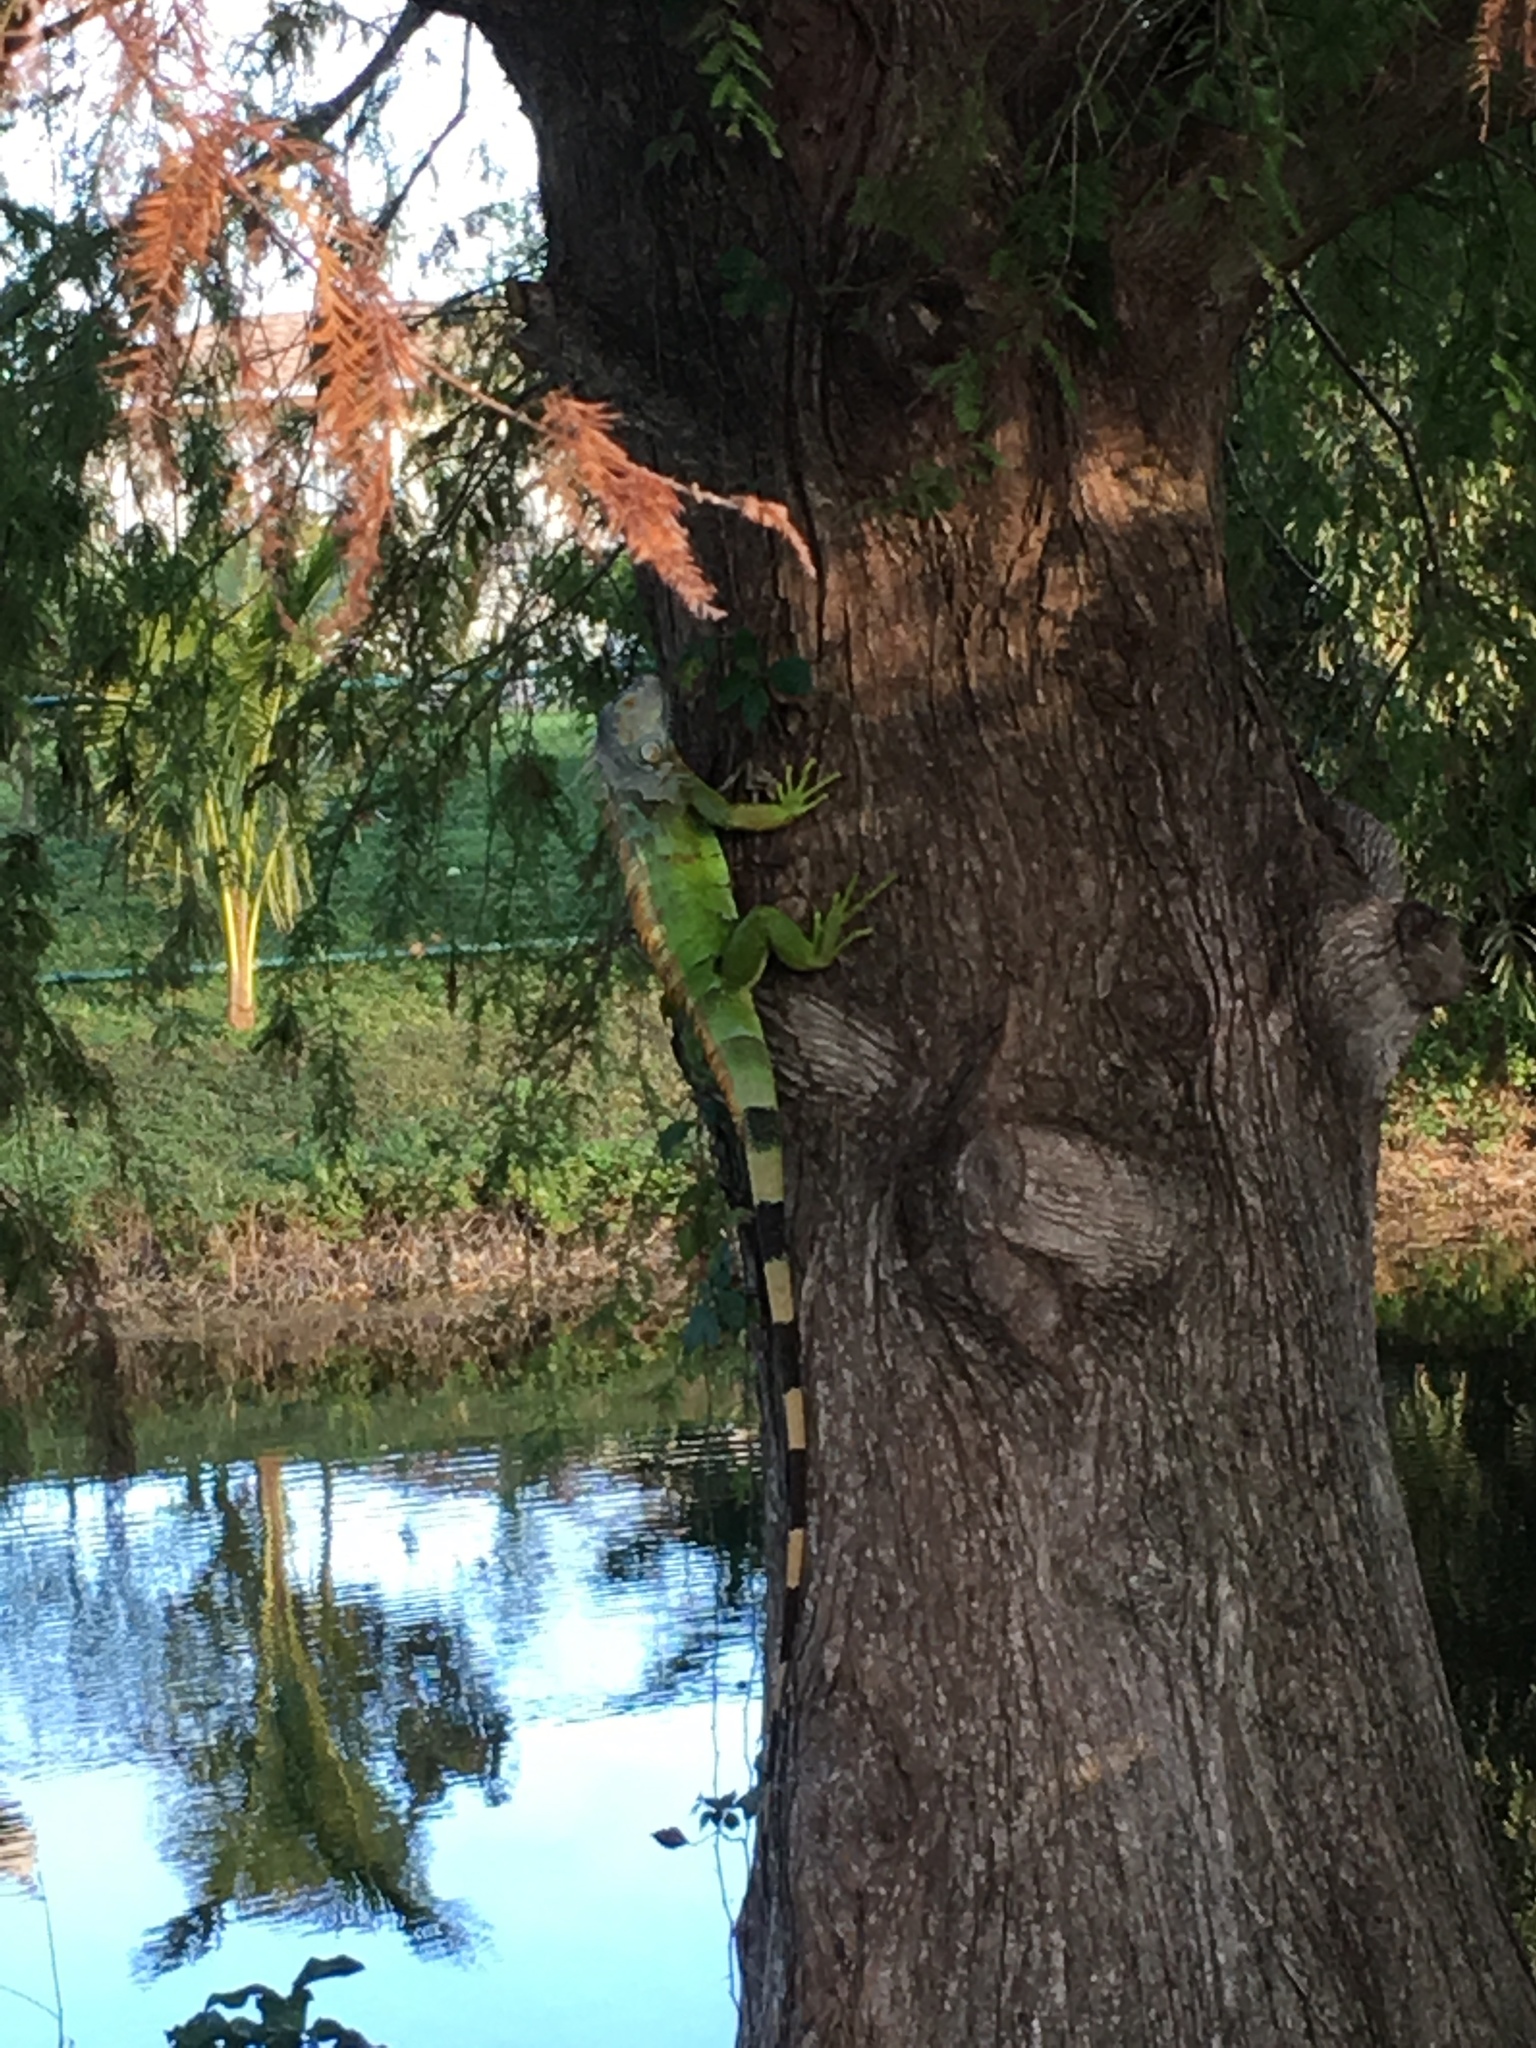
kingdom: Animalia
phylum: Chordata
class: Squamata
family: Iguanidae
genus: Iguana
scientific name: Iguana iguana
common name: Green iguana
